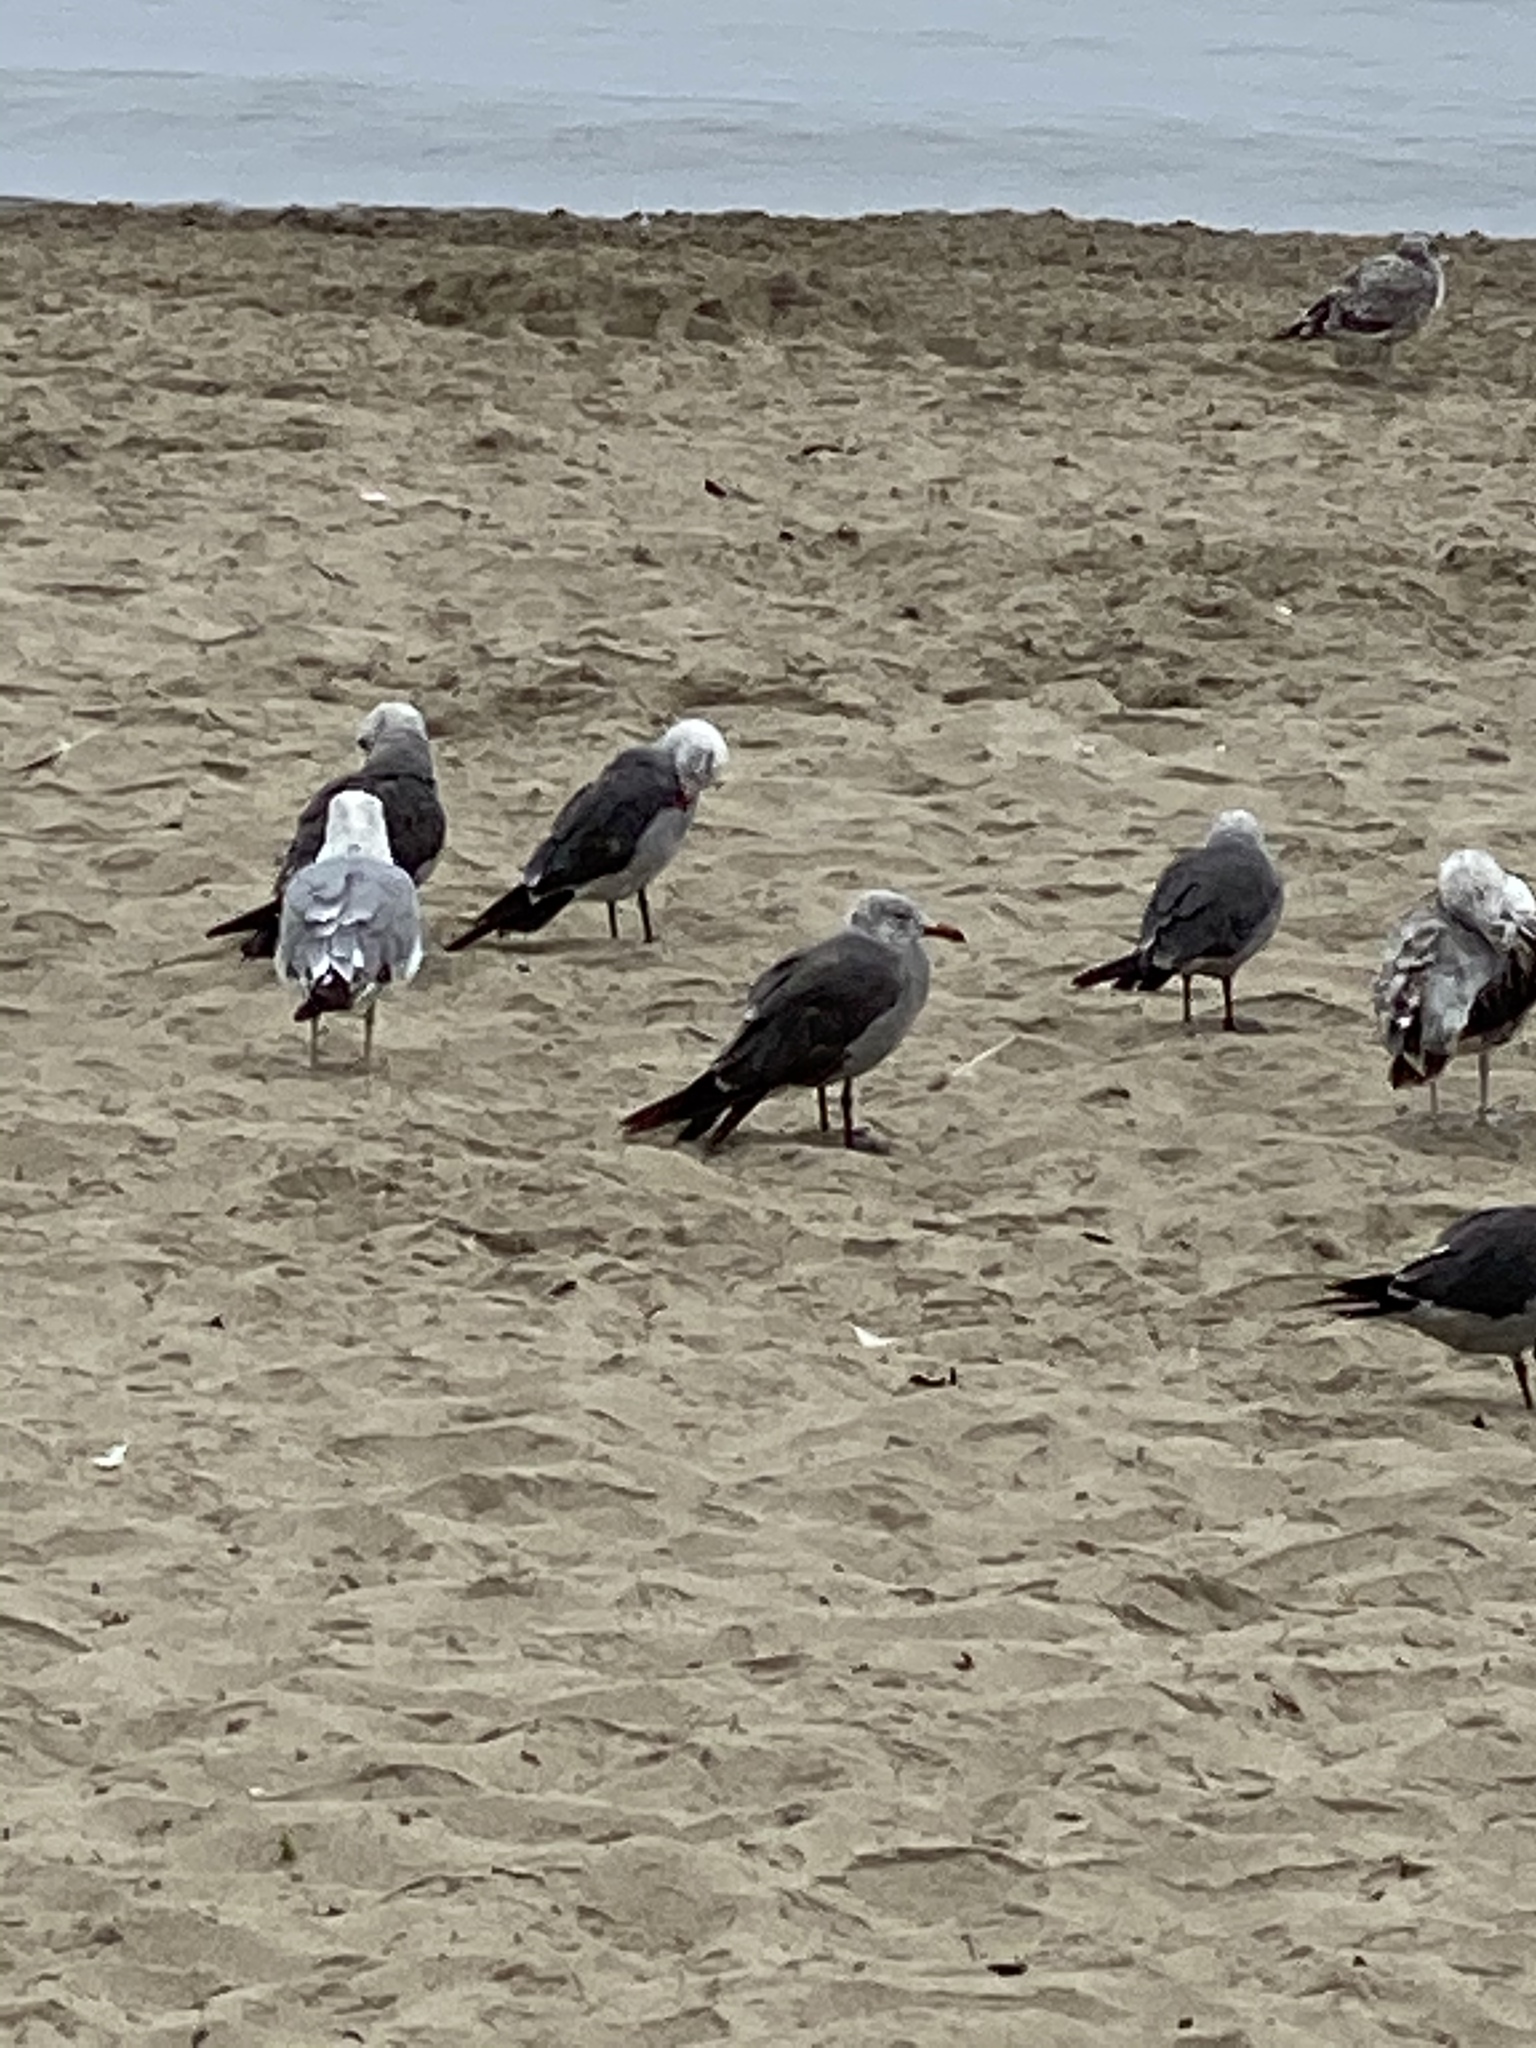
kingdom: Animalia
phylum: Chordata
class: Aves
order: Charadriiformes
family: Laridae
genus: Larus
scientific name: Larus heermanni
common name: Heermann's gull
